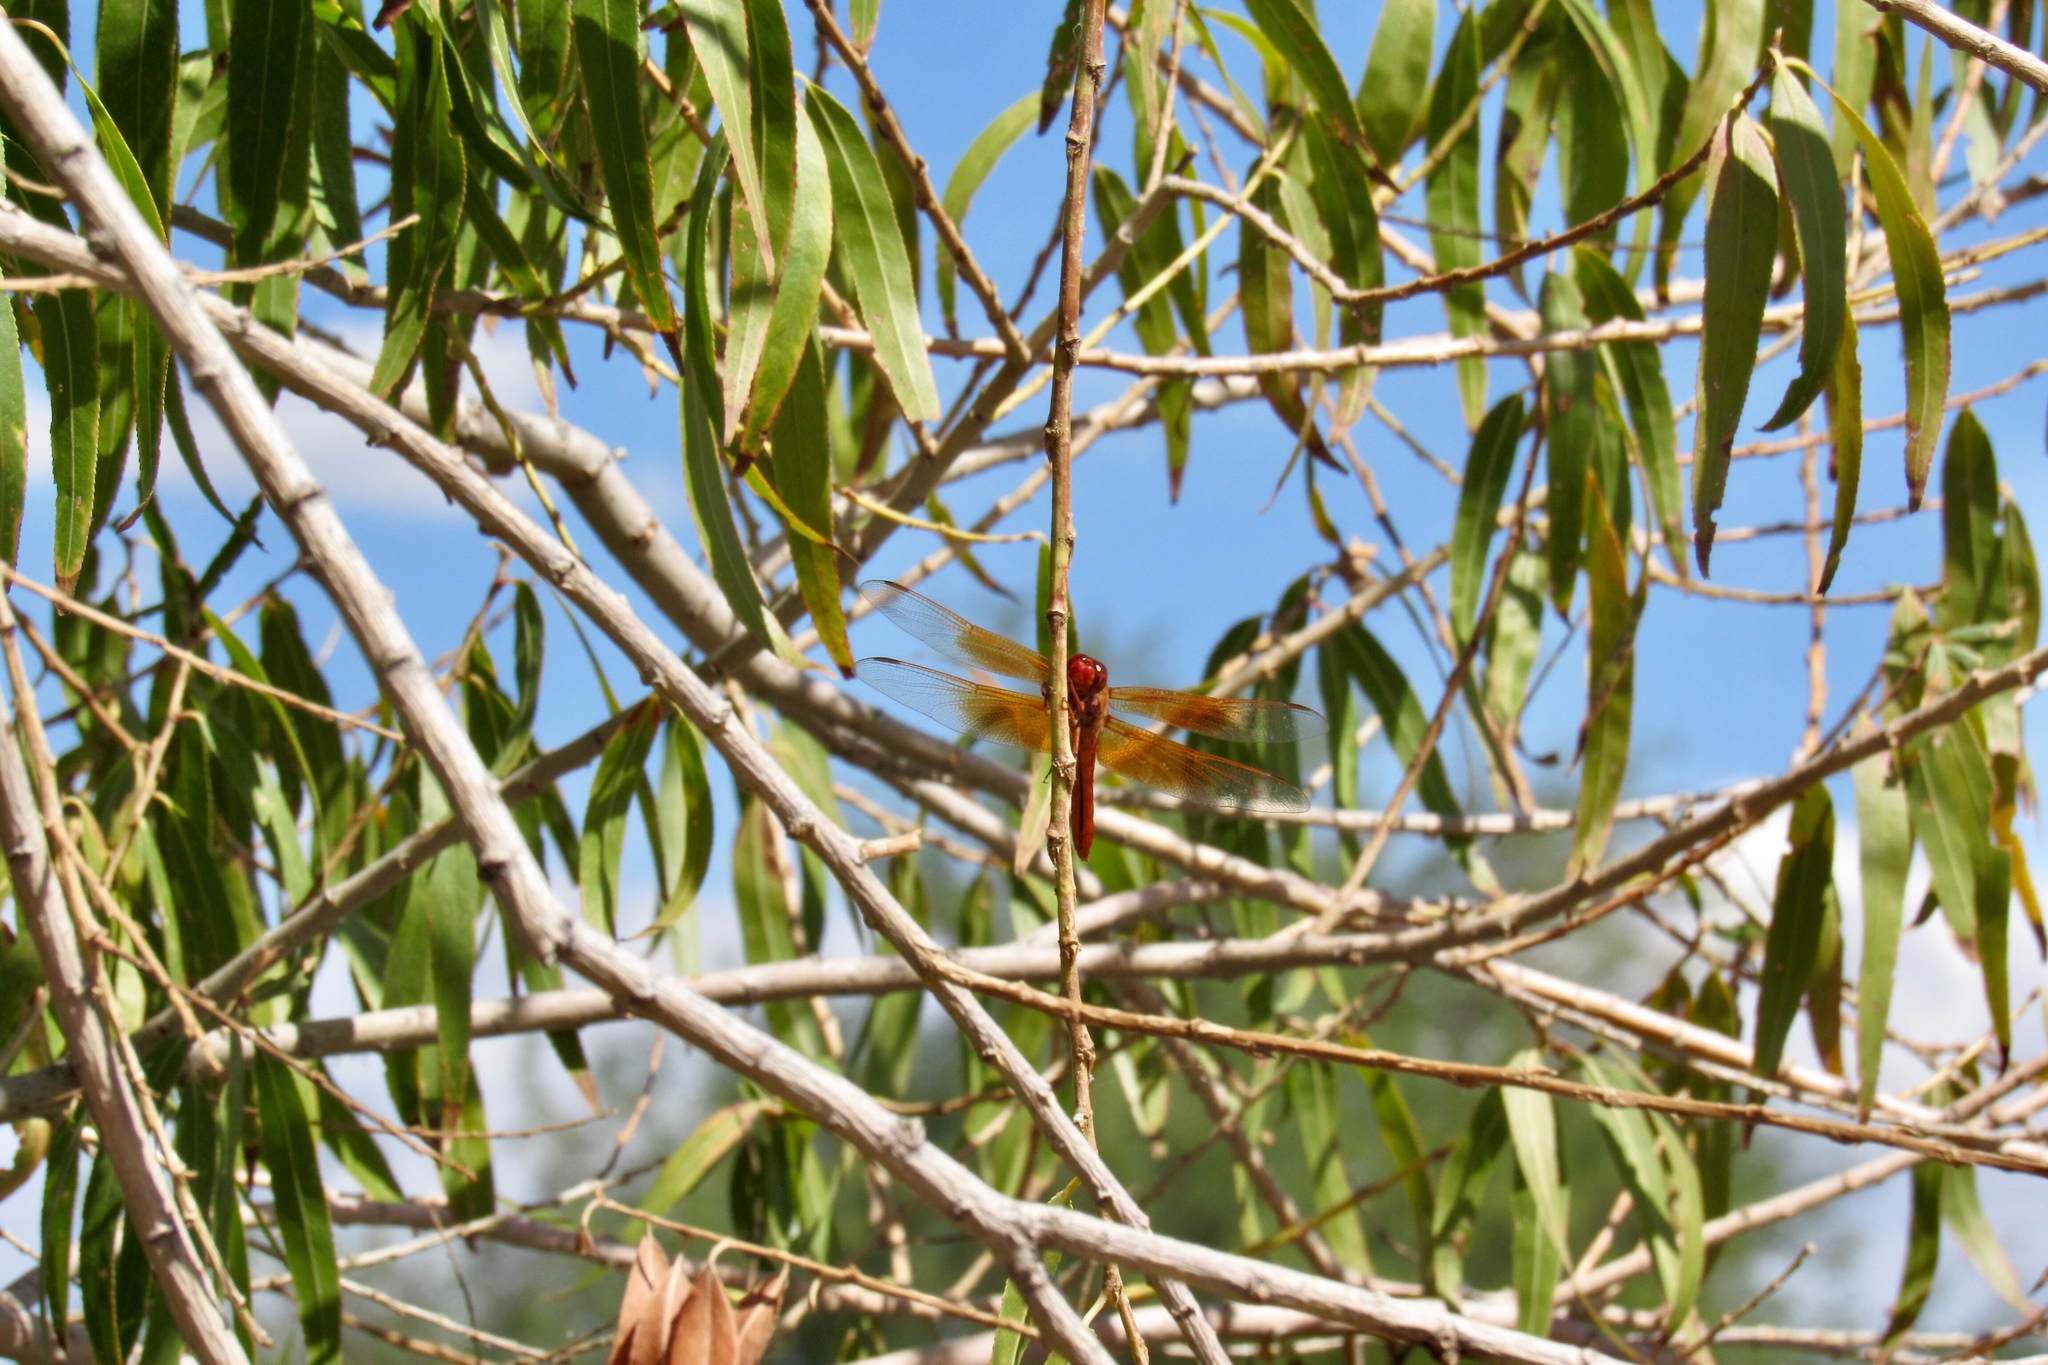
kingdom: Animalia
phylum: Arthropoda
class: Insecta
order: Odonata
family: Libellulidae
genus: Libellula
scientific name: Libellula saturata
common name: Flame skimmer
